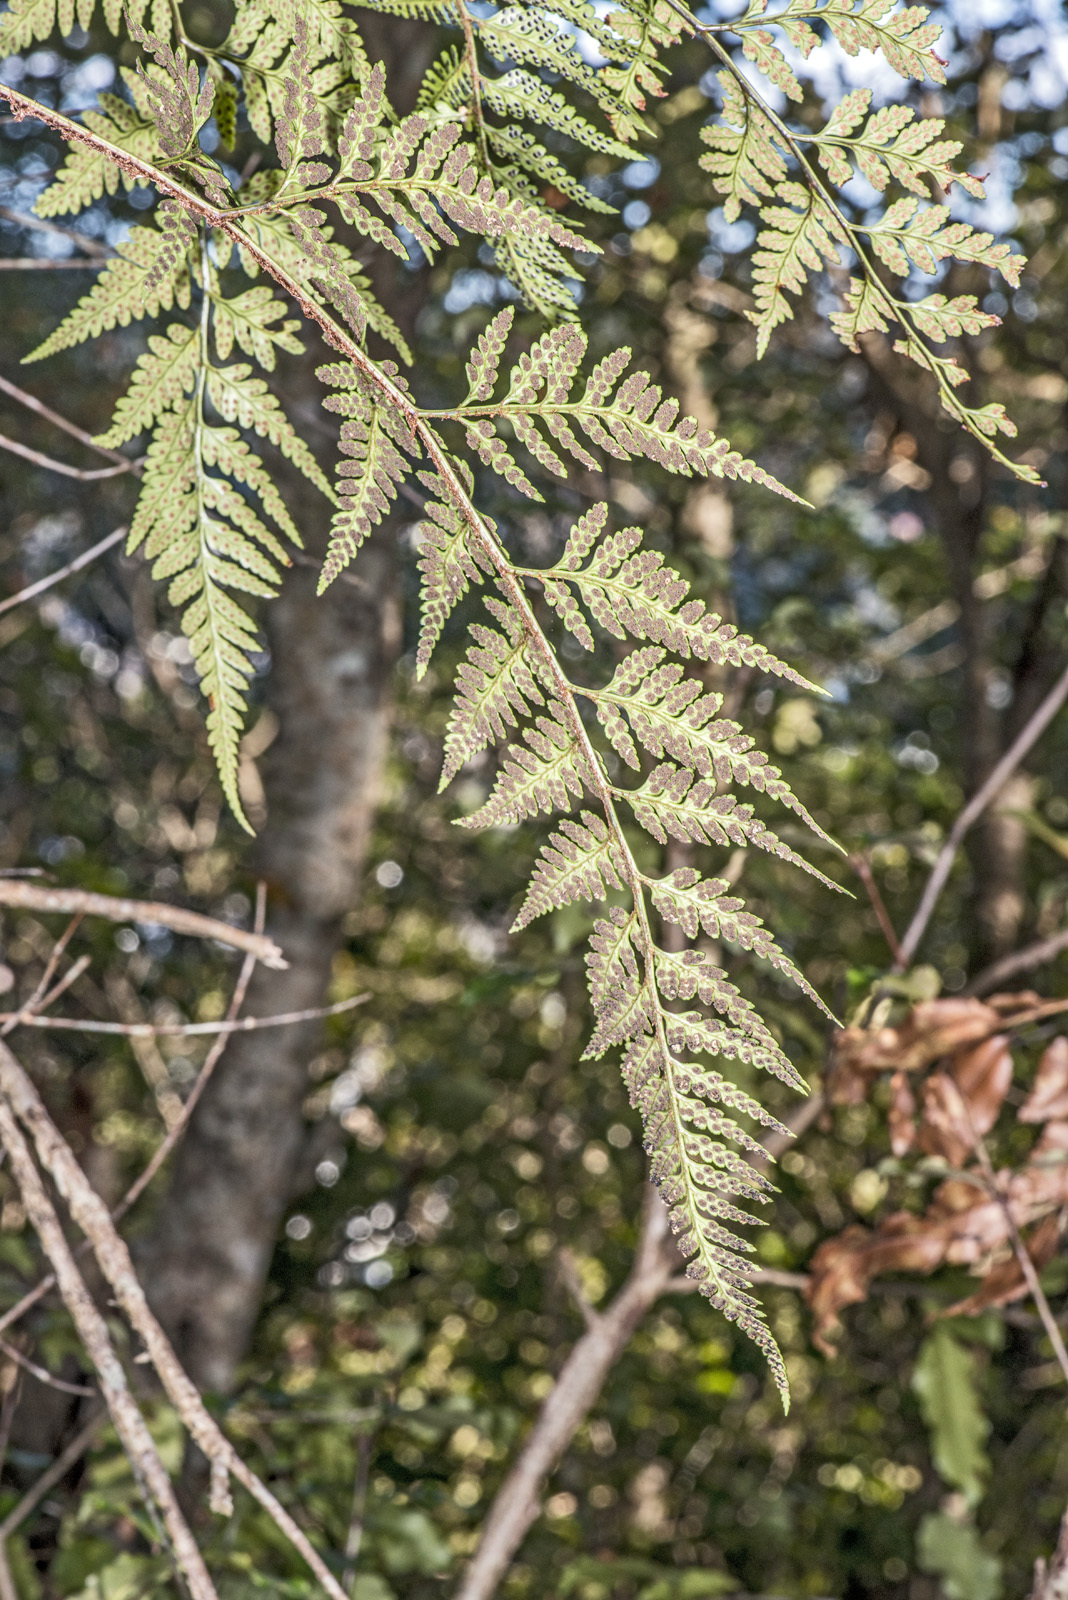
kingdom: Plantae
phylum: Tracheophyta
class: Polypodiopsida
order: Polypodiales
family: Dryopteridaceae
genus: Rumohra
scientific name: Rumohra adiantiformis
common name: Leather fern
